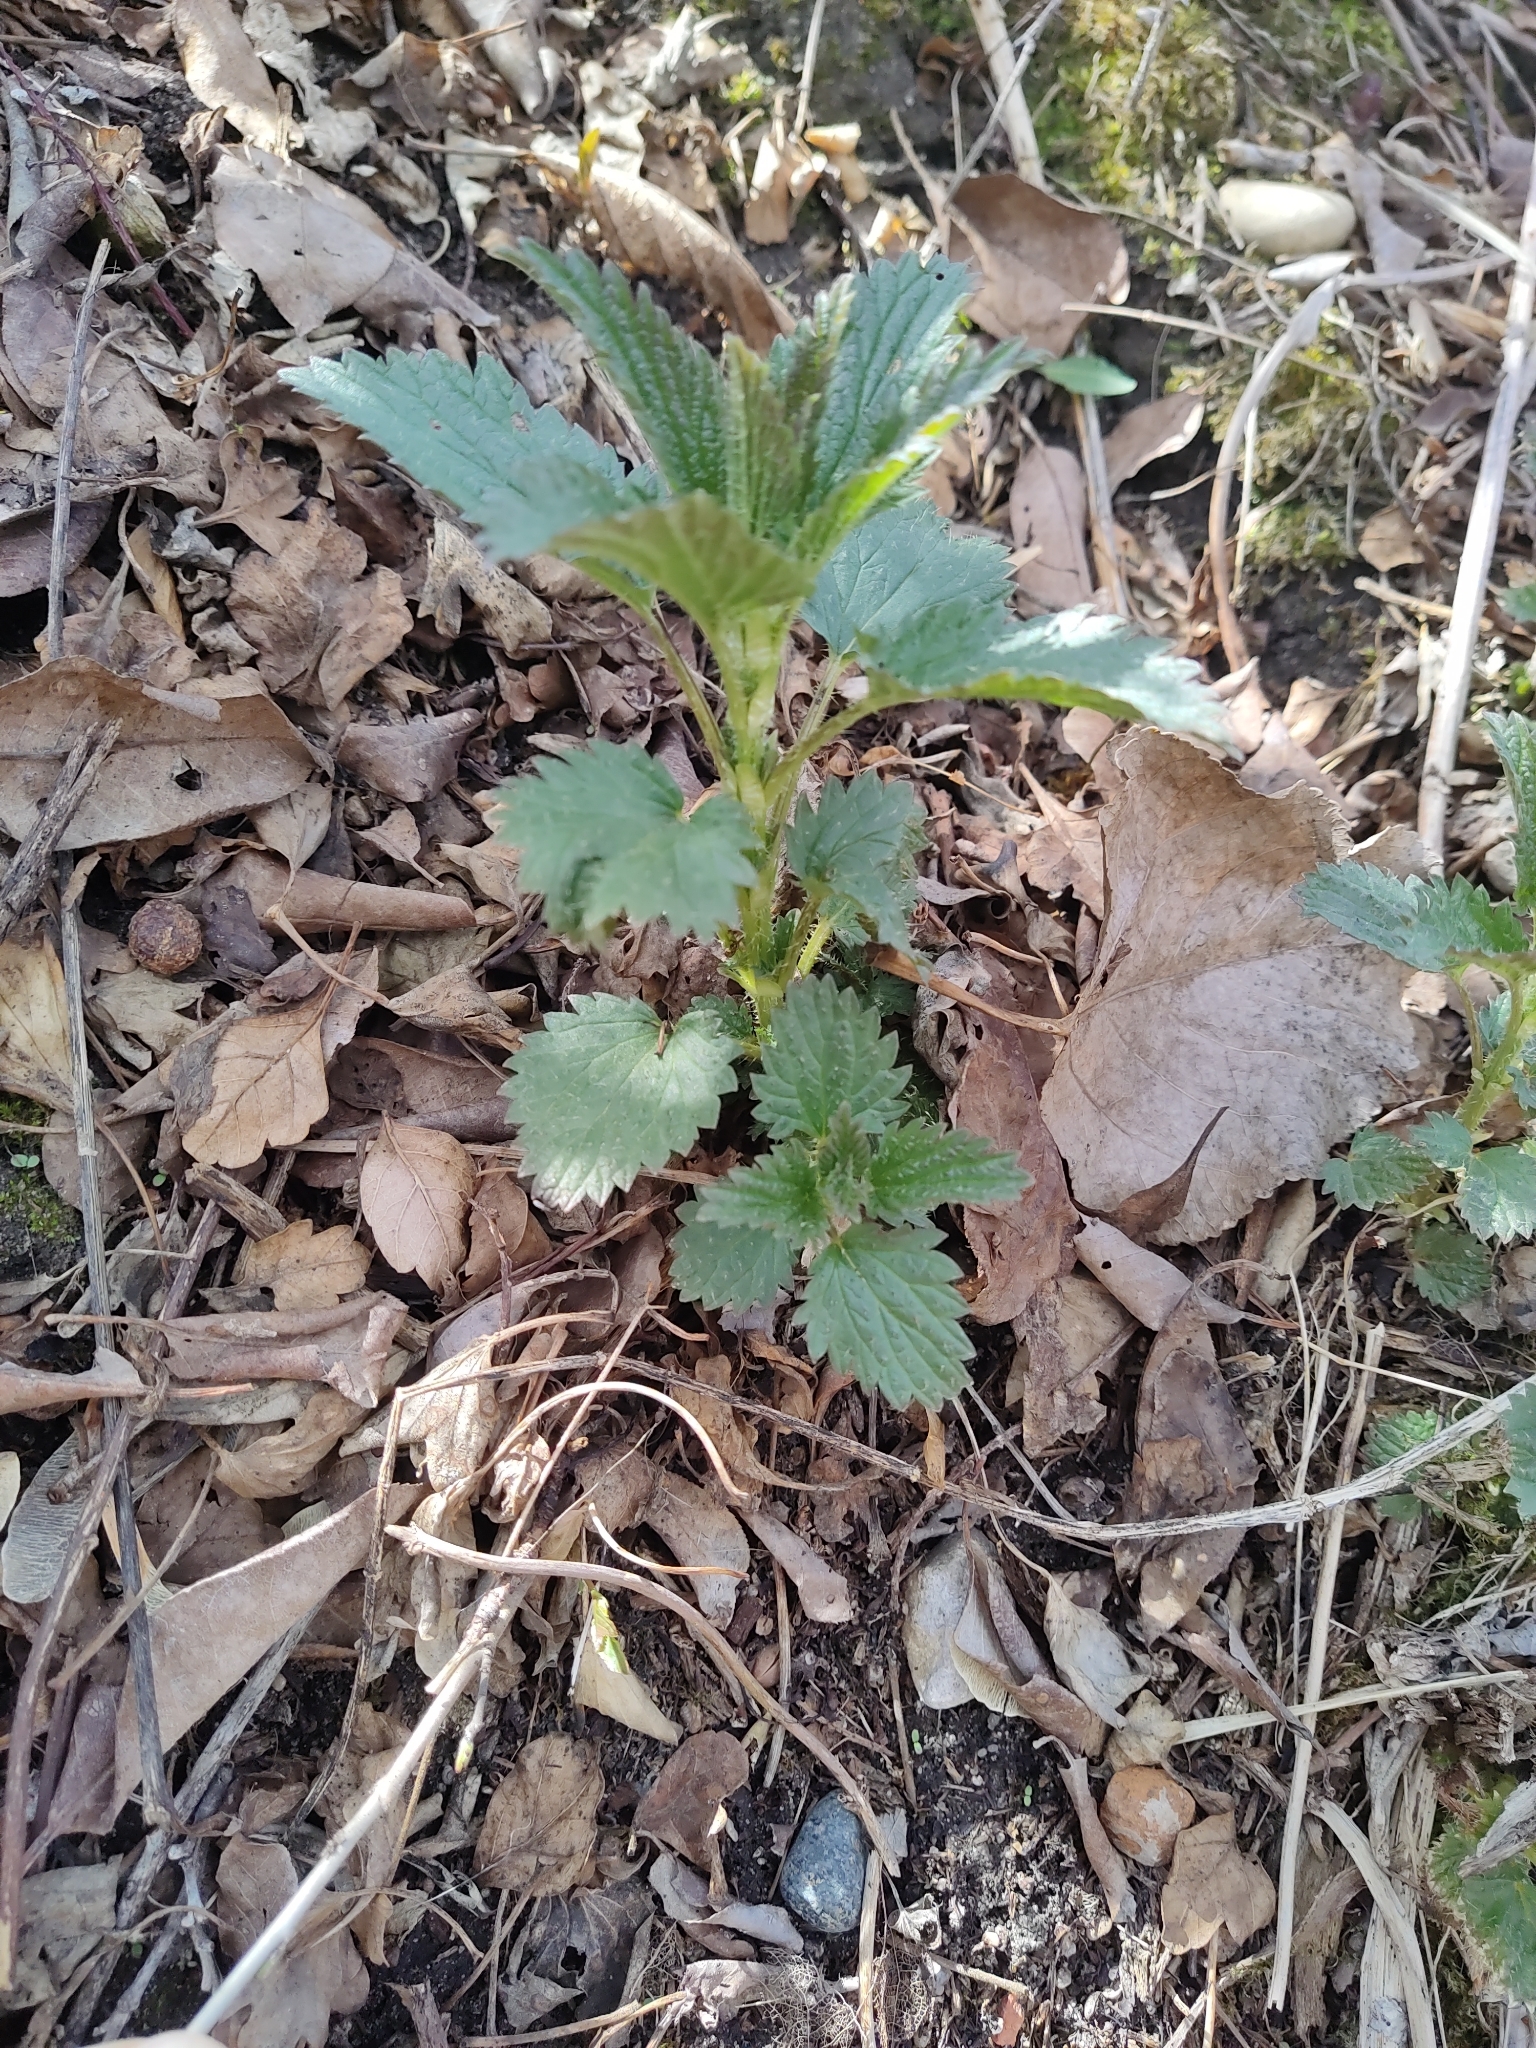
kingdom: Plantae
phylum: Tracheophyta
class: Magnoliopsida
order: Rosales
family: Urticaceae
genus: Urtica
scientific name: Urtica gracilis
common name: Slender stinging nettle
